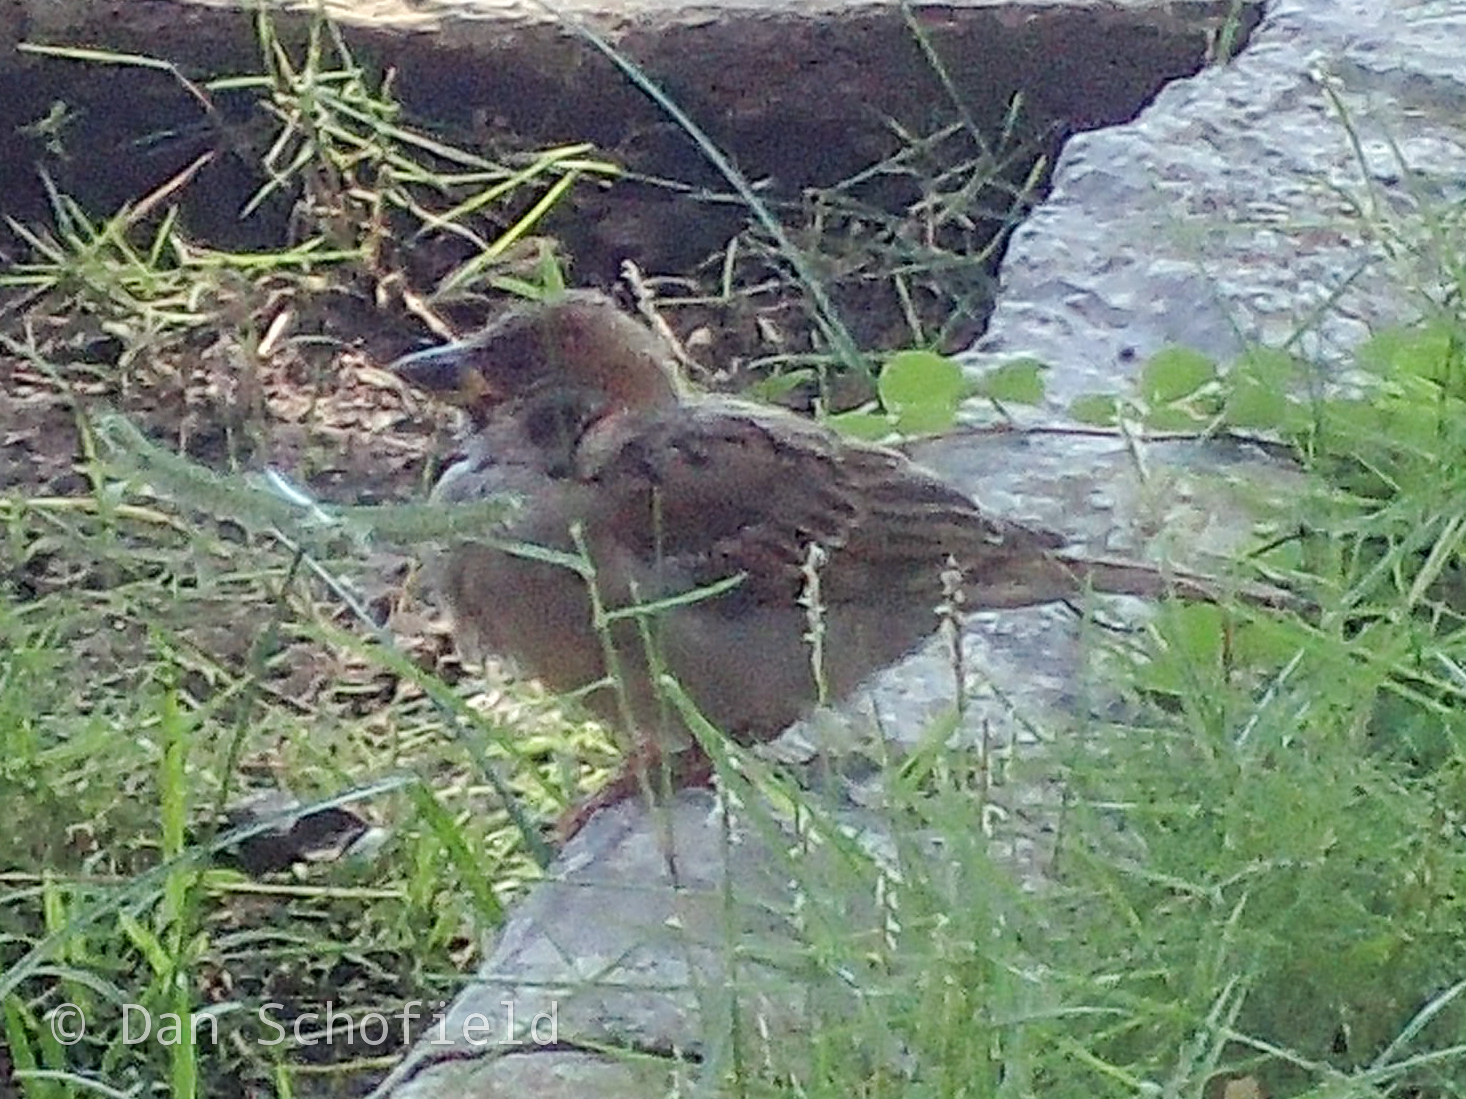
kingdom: Animalia
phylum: Chordata
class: Aves
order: Passeriformes
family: Passeridae
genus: Passer
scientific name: Passer montanus
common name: Eurasian tree sparrow
